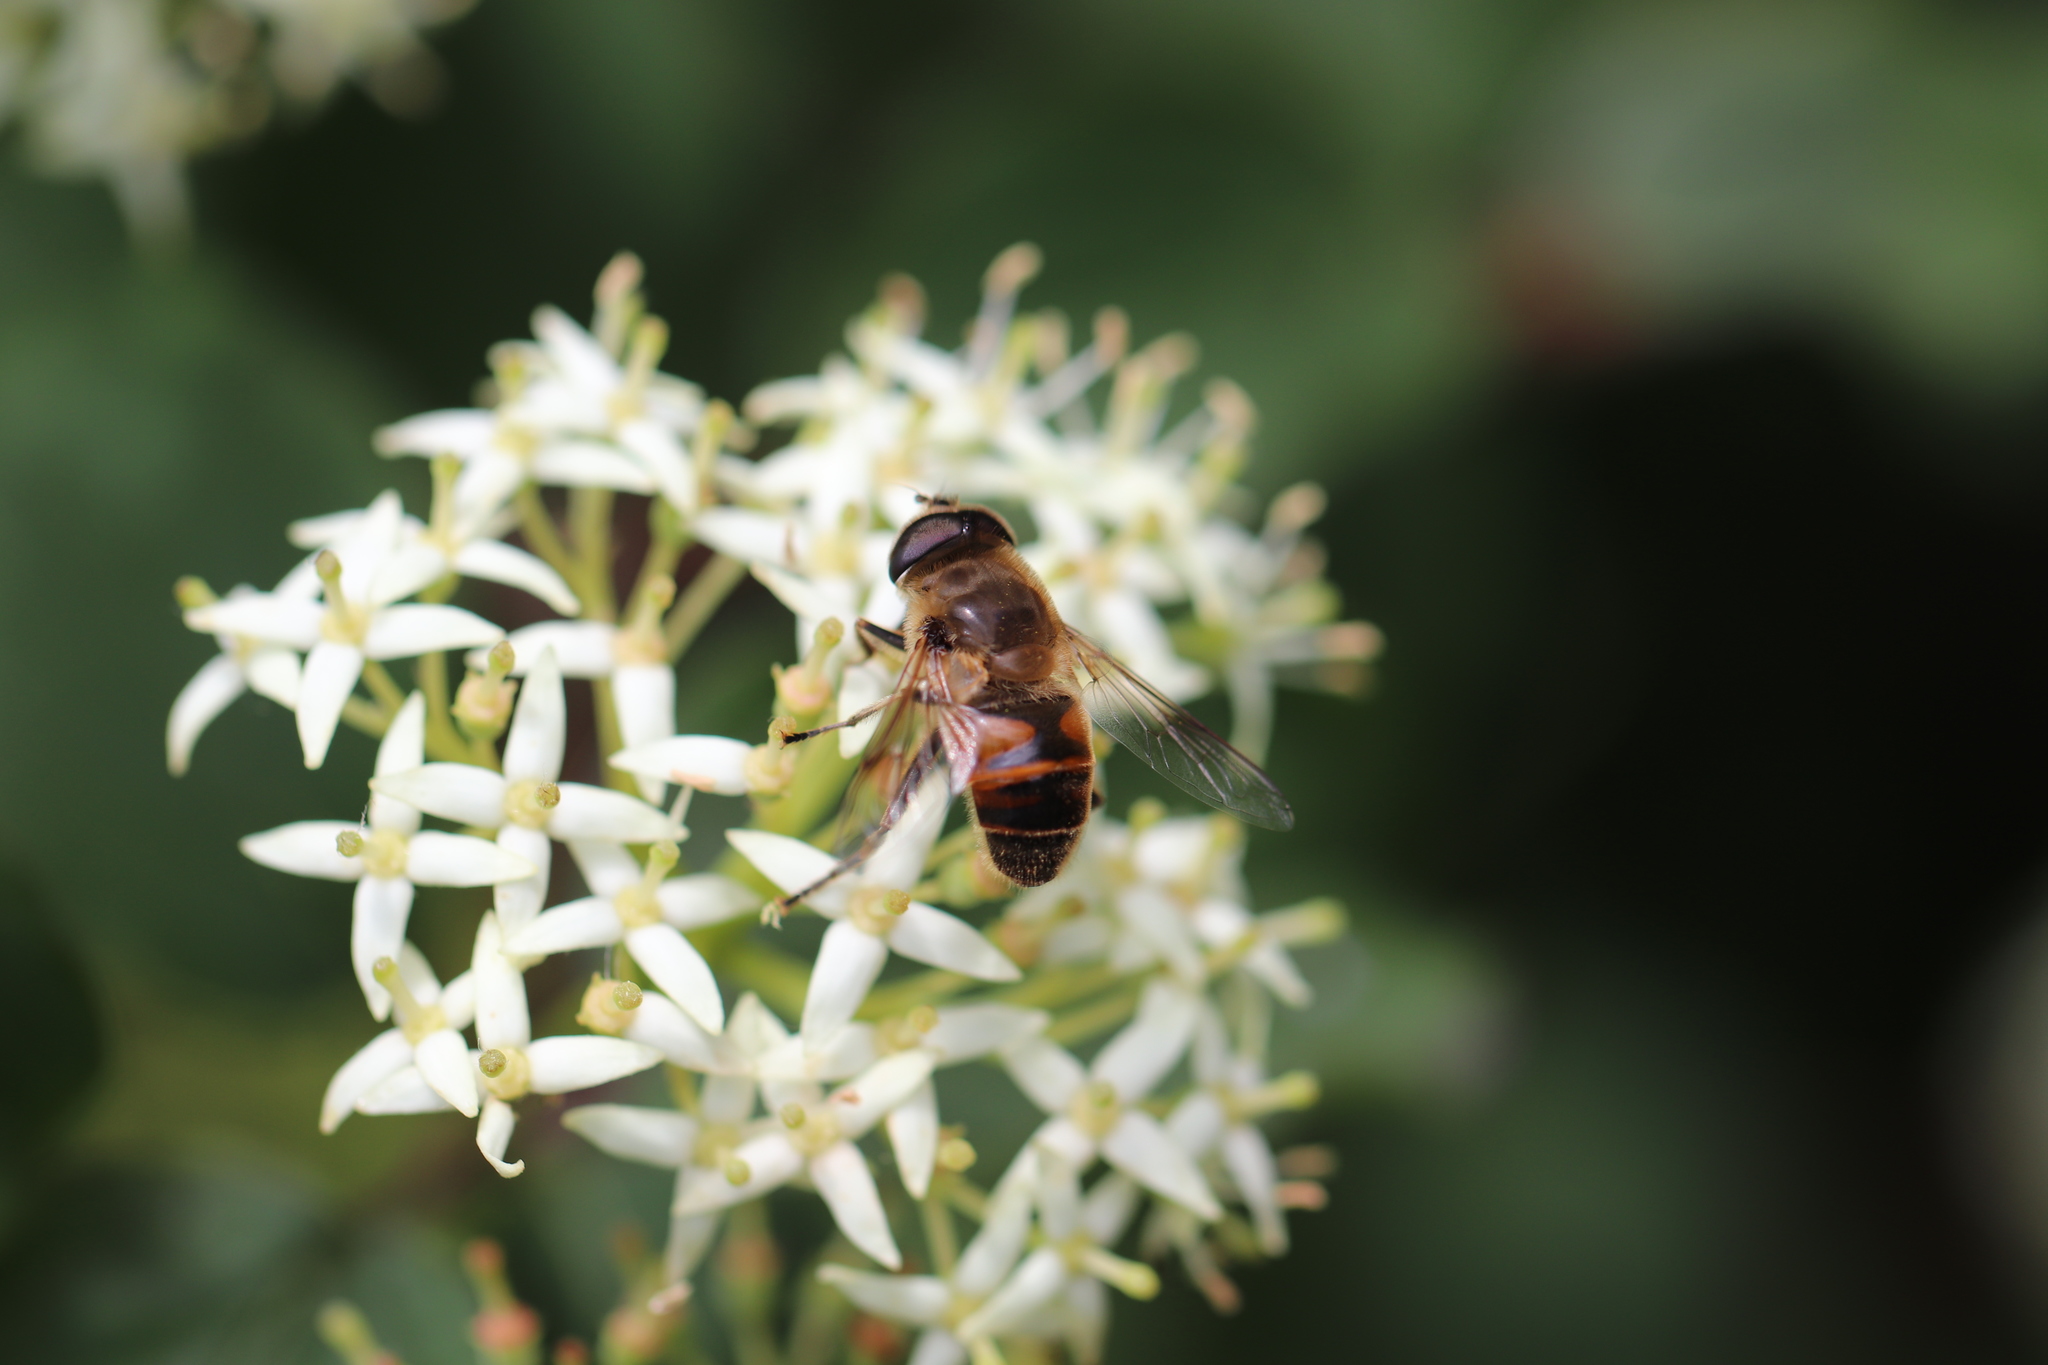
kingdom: Animalia
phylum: Arthropoda
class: Insecta
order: Diptera
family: Syrphidae
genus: Eristalis
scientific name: Eristalis tenax
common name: Drone fly
